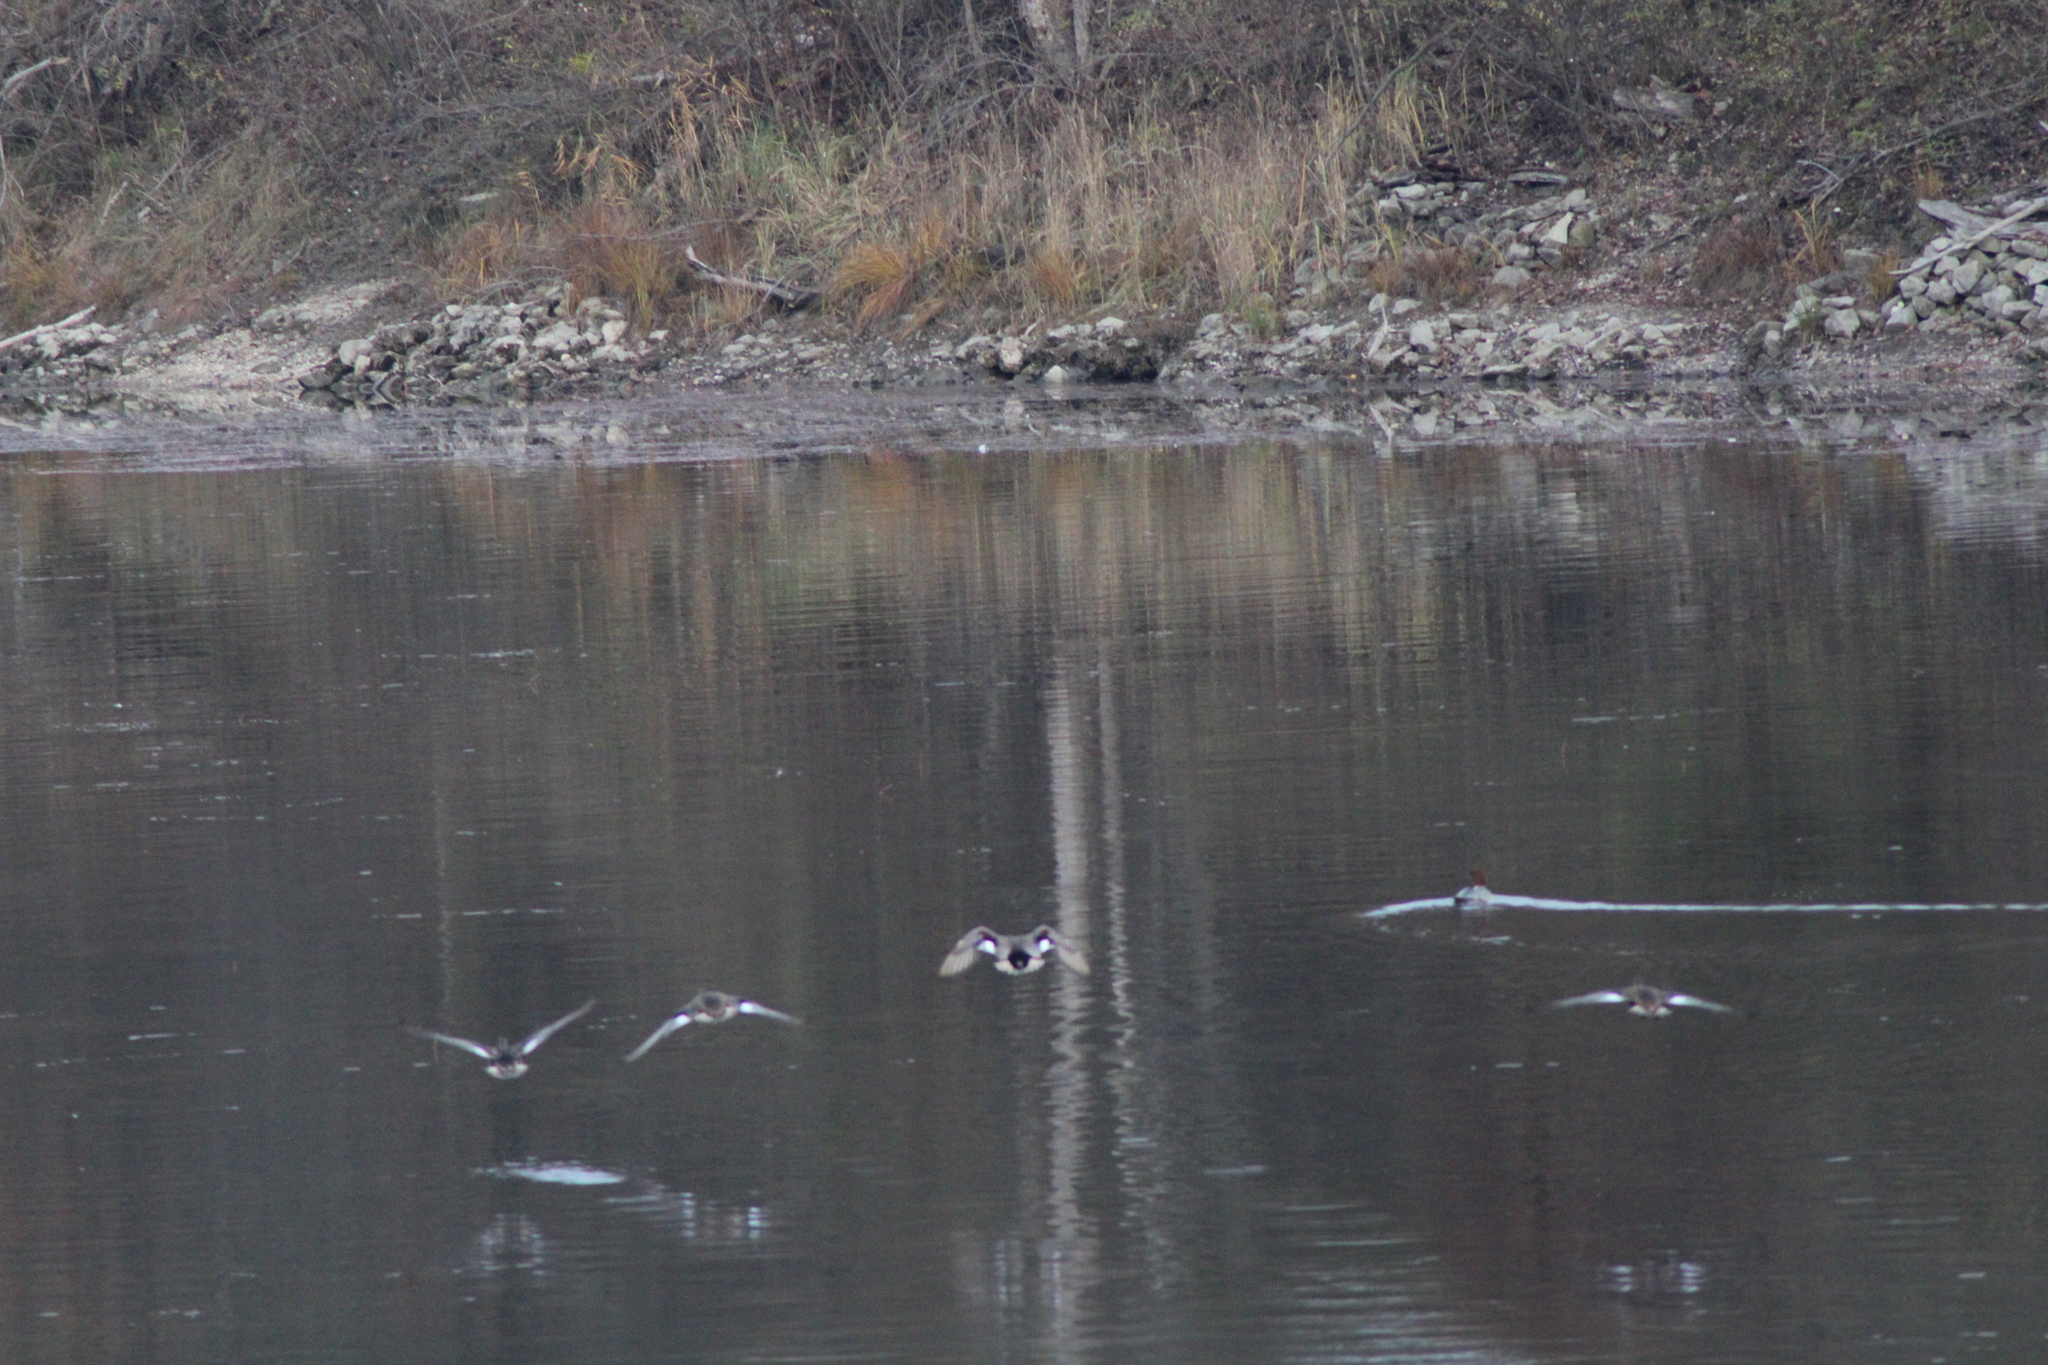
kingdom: Animalia
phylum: Chordata
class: Aves
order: Anseriformes
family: Anatidae
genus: Mareca
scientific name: Mareca strepera
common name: Gadwall
